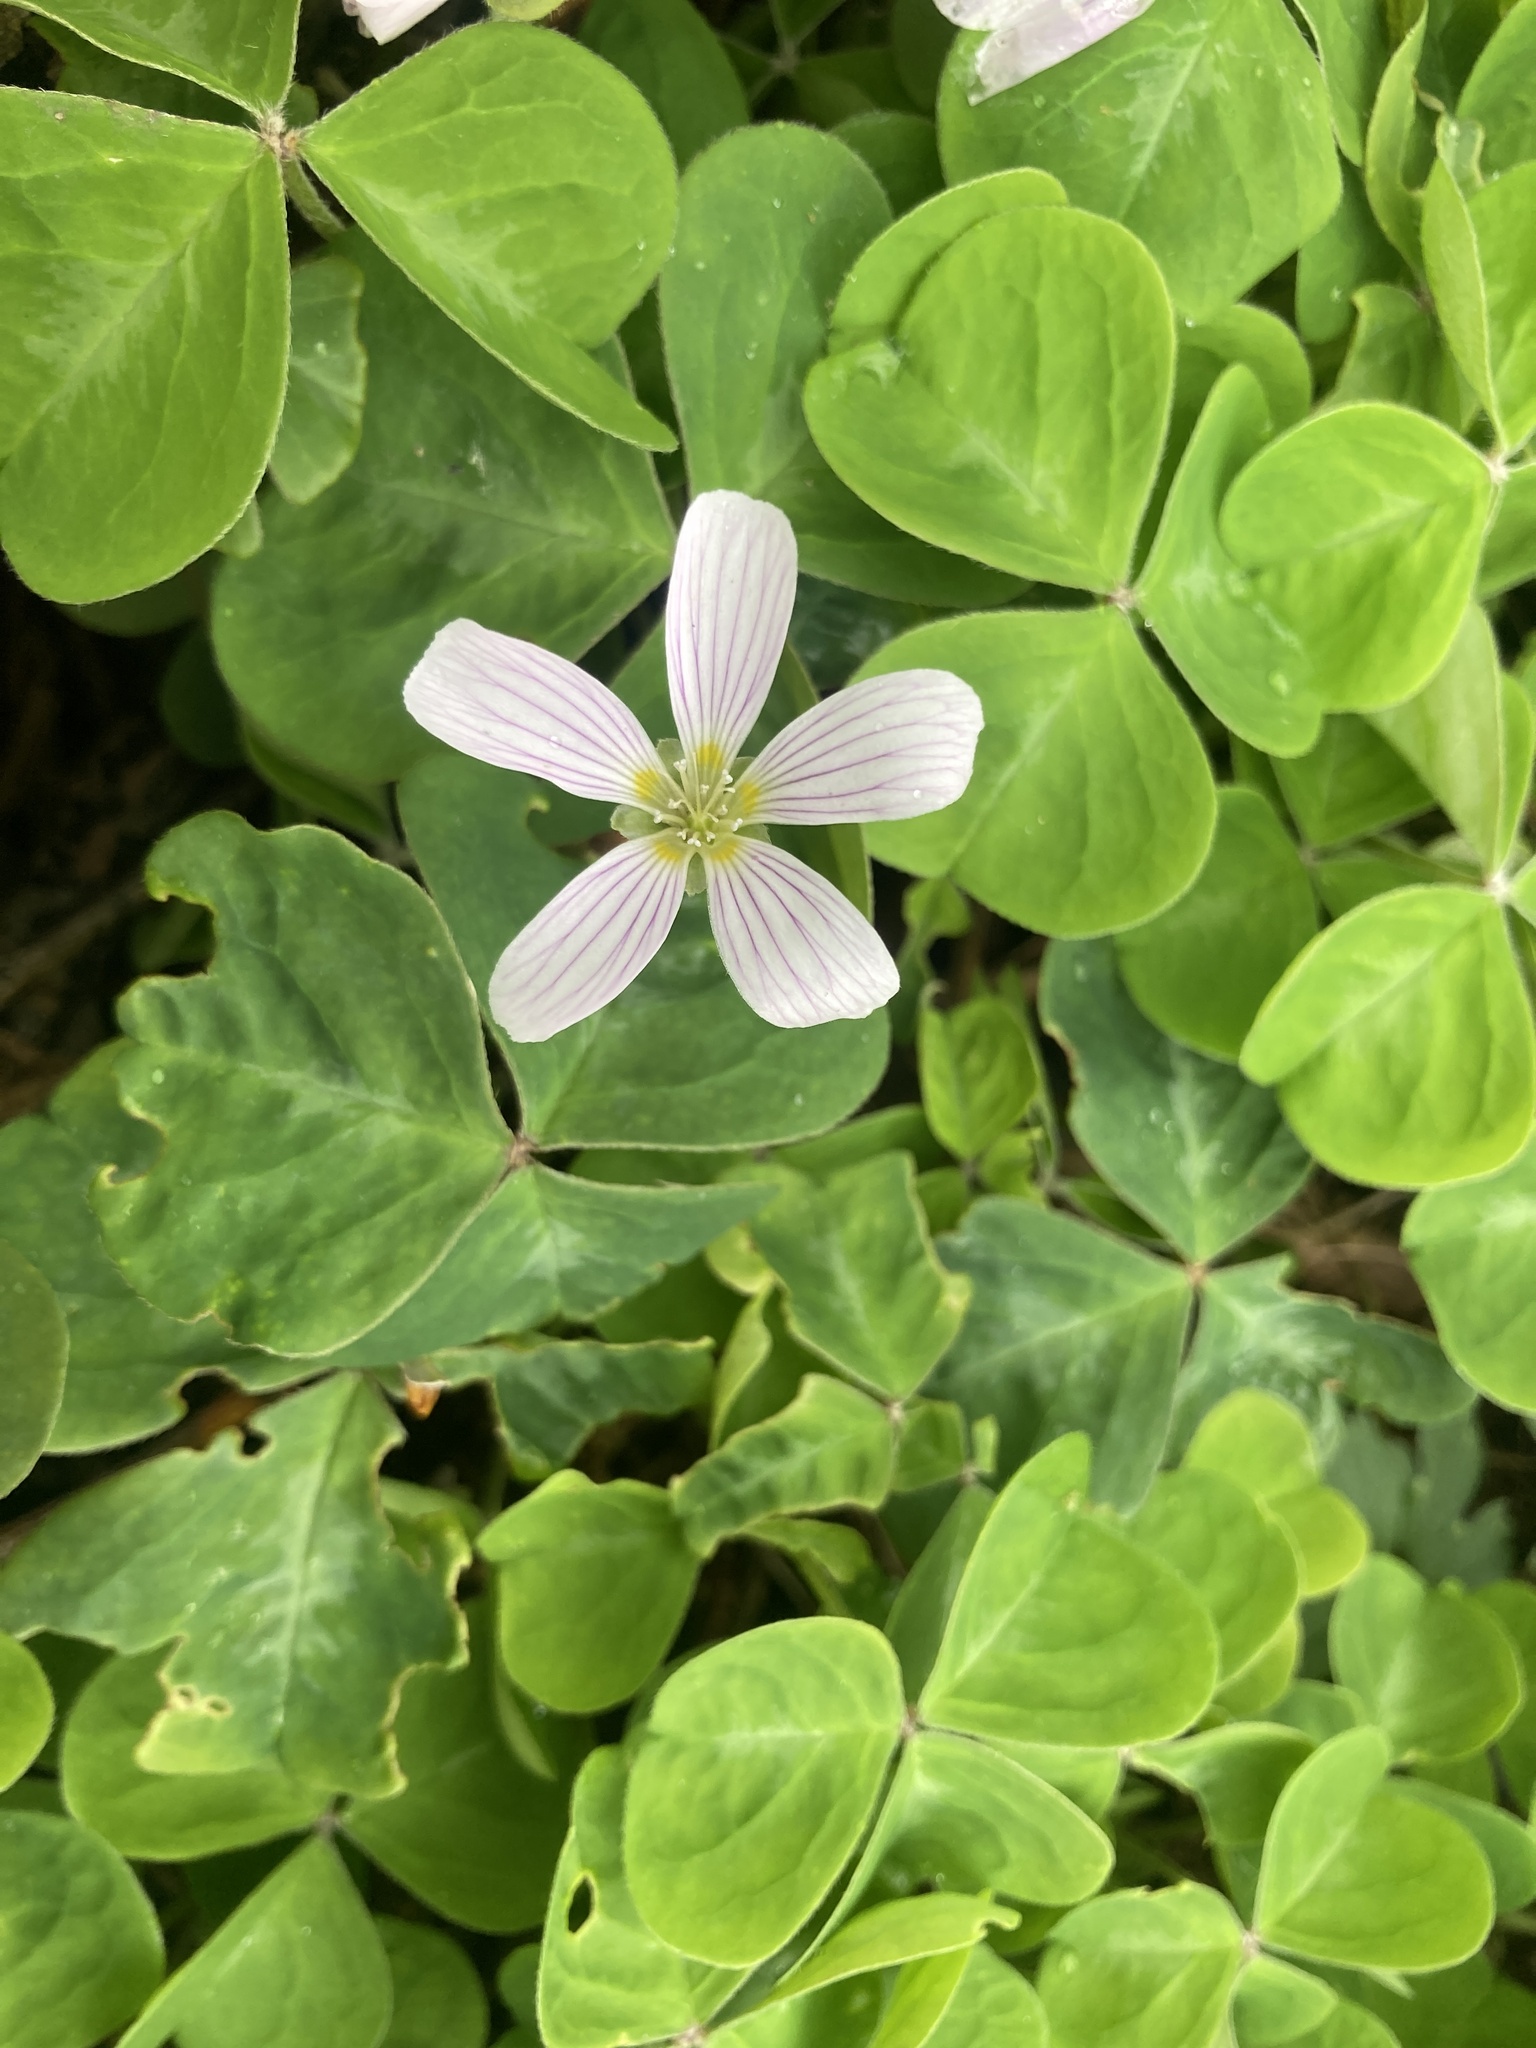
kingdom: Plantae
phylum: Tracheophyta
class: Magnoliopsida
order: Oxalidales
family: Oxalidaceae
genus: Oxalis
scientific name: Oxalis oregana
